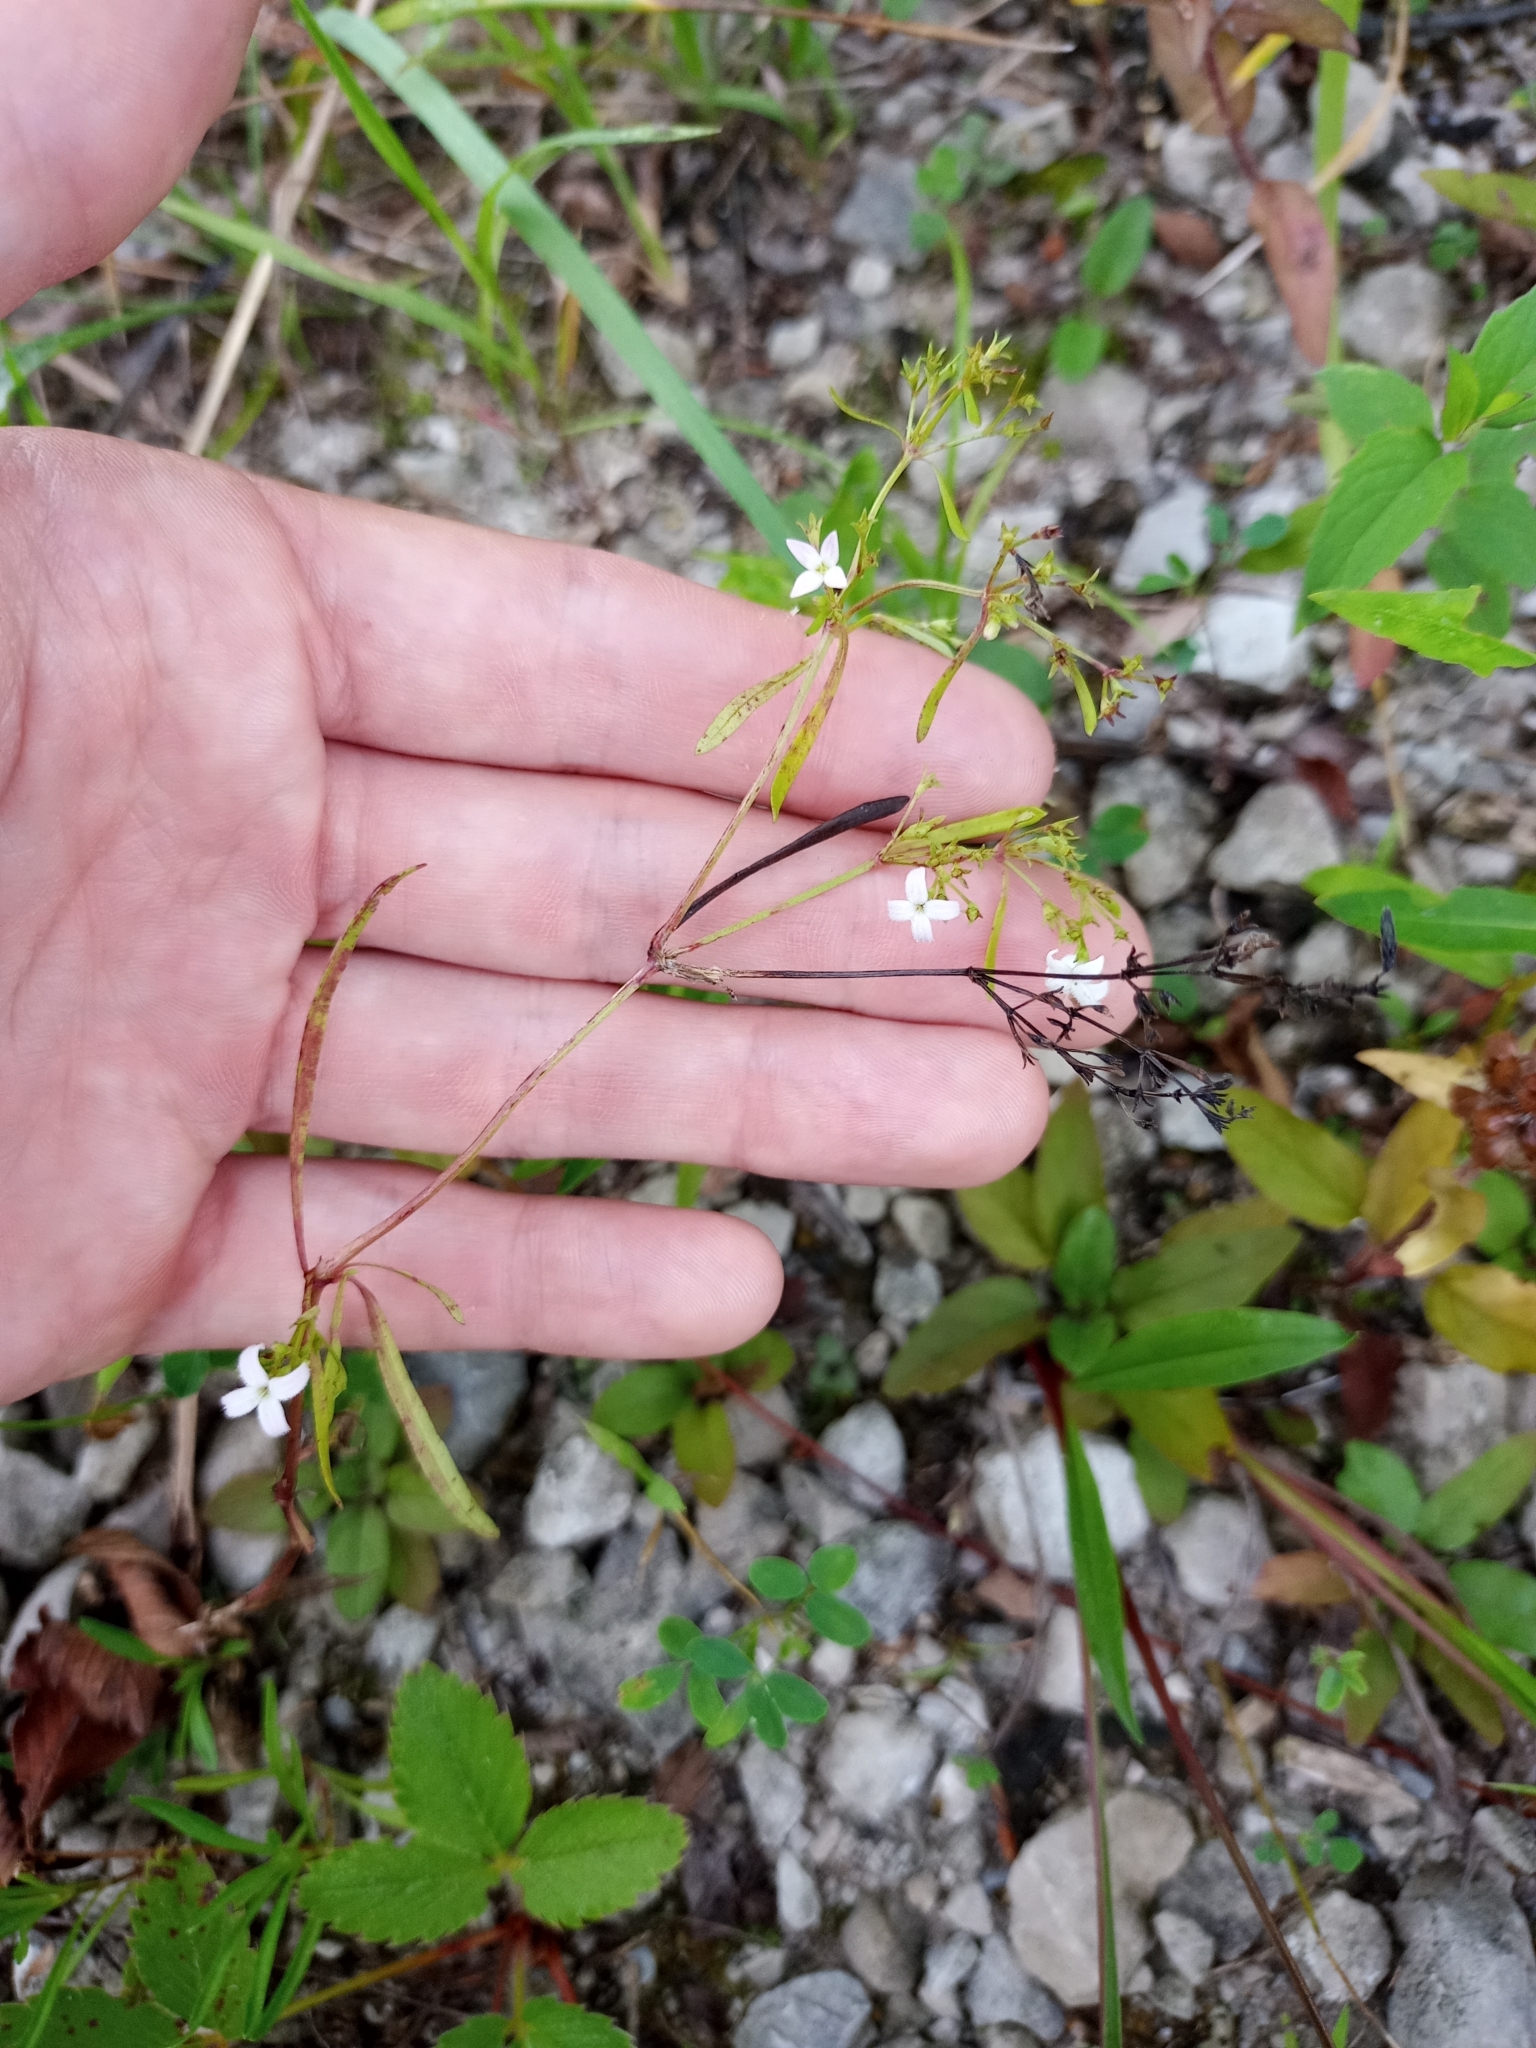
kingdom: Plantae
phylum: Tracheophyta
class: Magnoliopsida
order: Gentianales
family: Rubiaceae
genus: Houstonia
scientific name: Houstonia longifolia
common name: Long-leaved bluets
